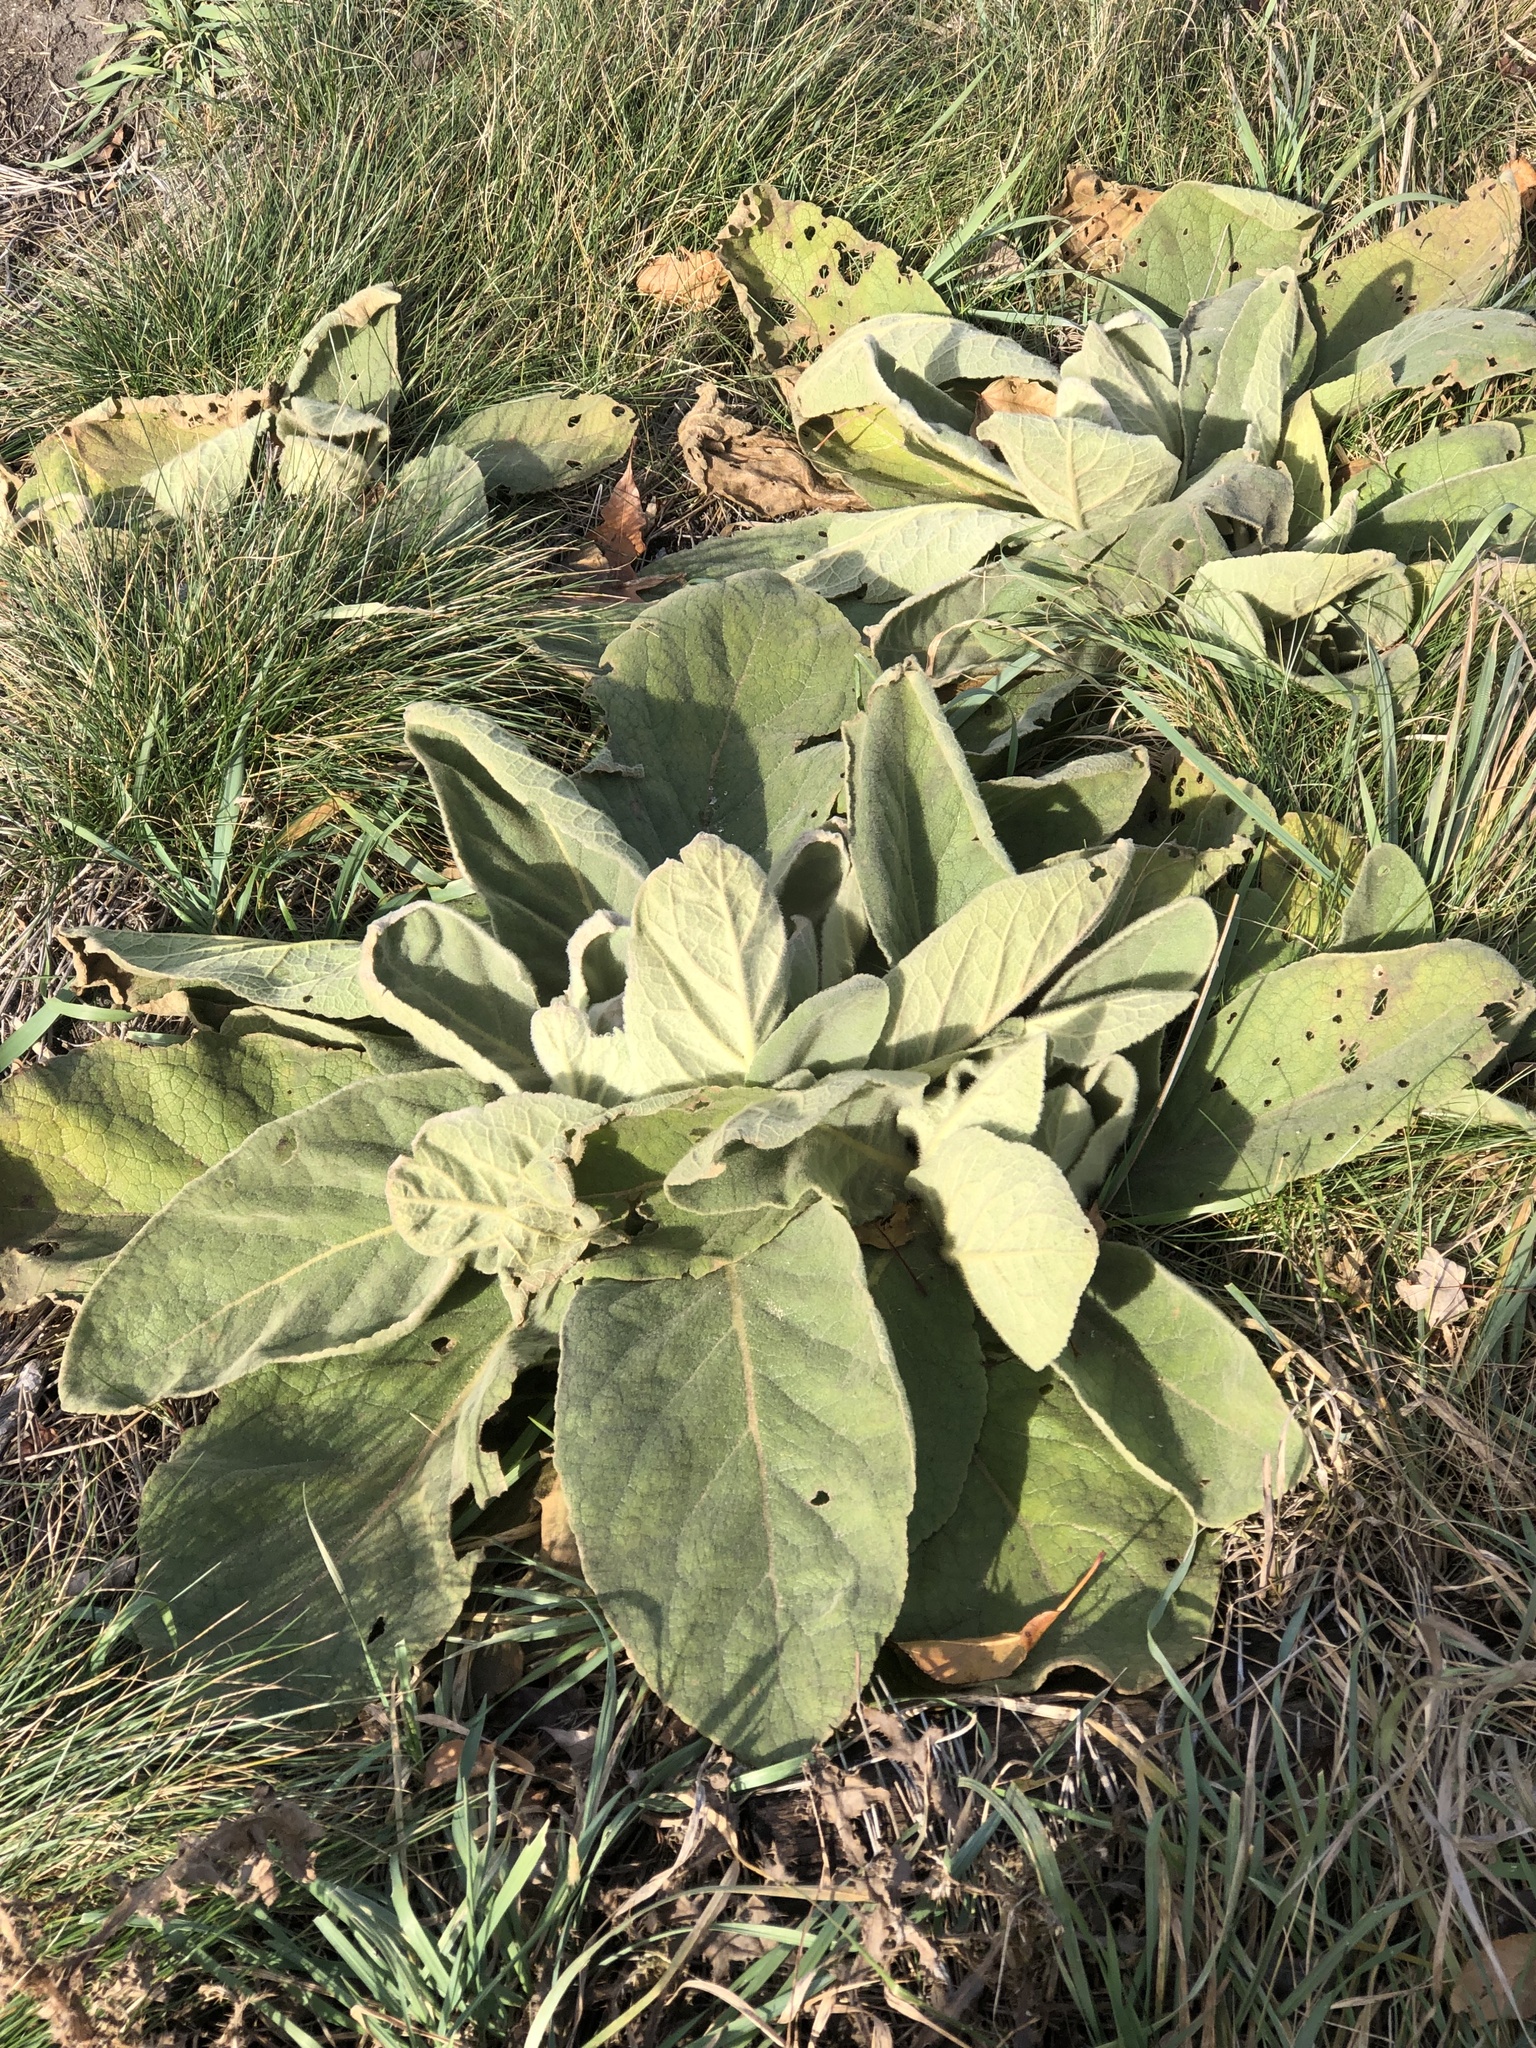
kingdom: Plantae
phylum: Tracheophyta
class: Magnoliopsida
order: Lamiales
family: Scrophulariaceae
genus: Verbascum
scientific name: Verbascum thapsus
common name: Common mullein
